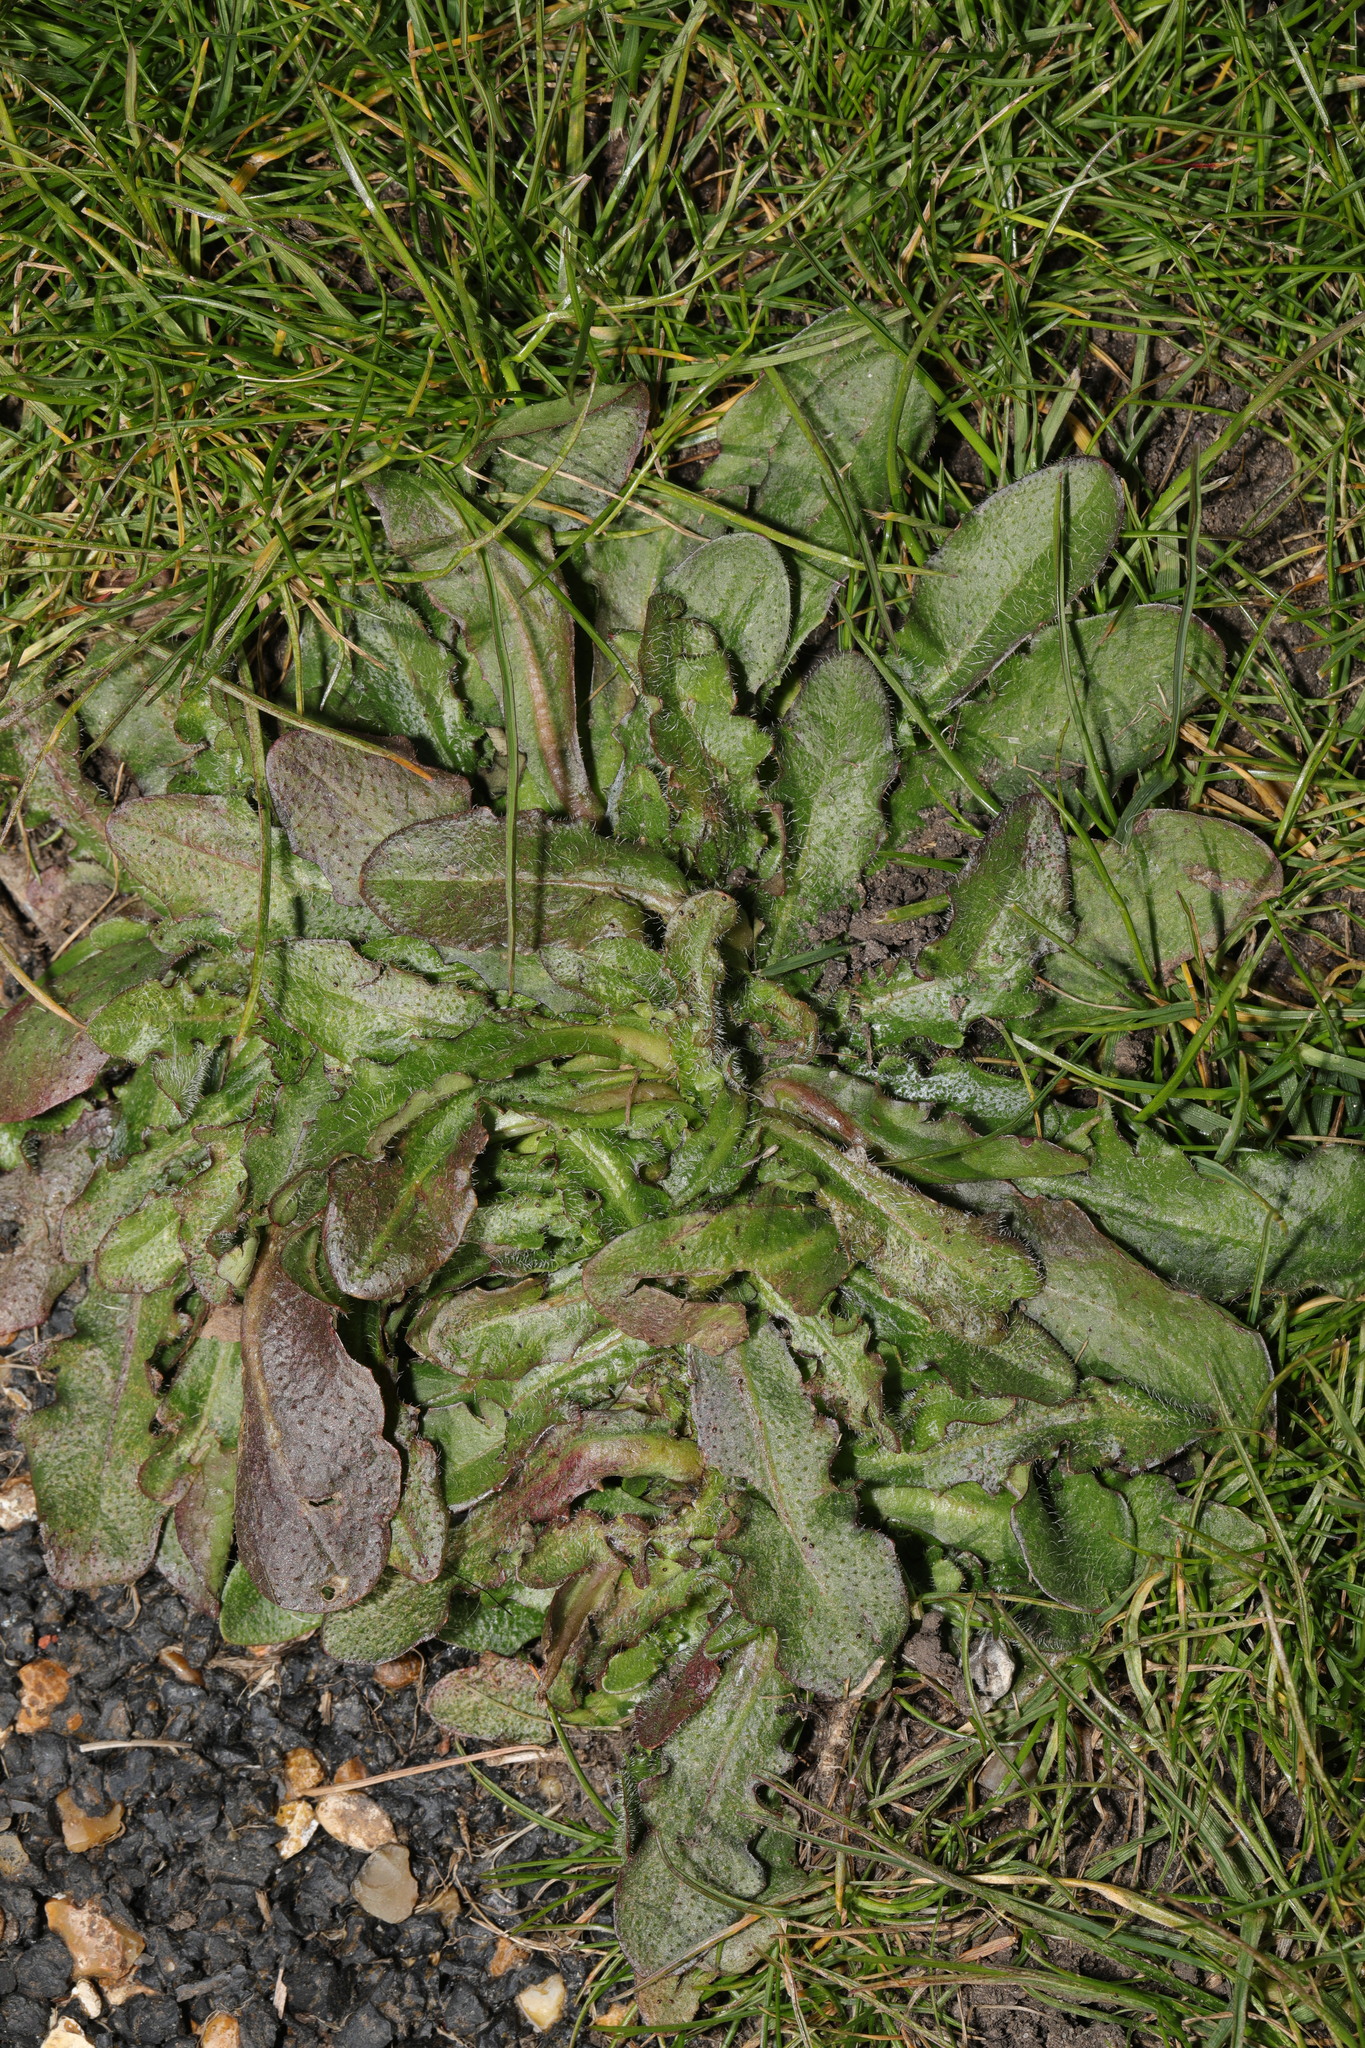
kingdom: Plantae
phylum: Tracheophyta
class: Magnoliopsida
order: Asterales
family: Asteraceae
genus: Hypochaeris
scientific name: Hypochaeris radicata
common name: Flatweed
